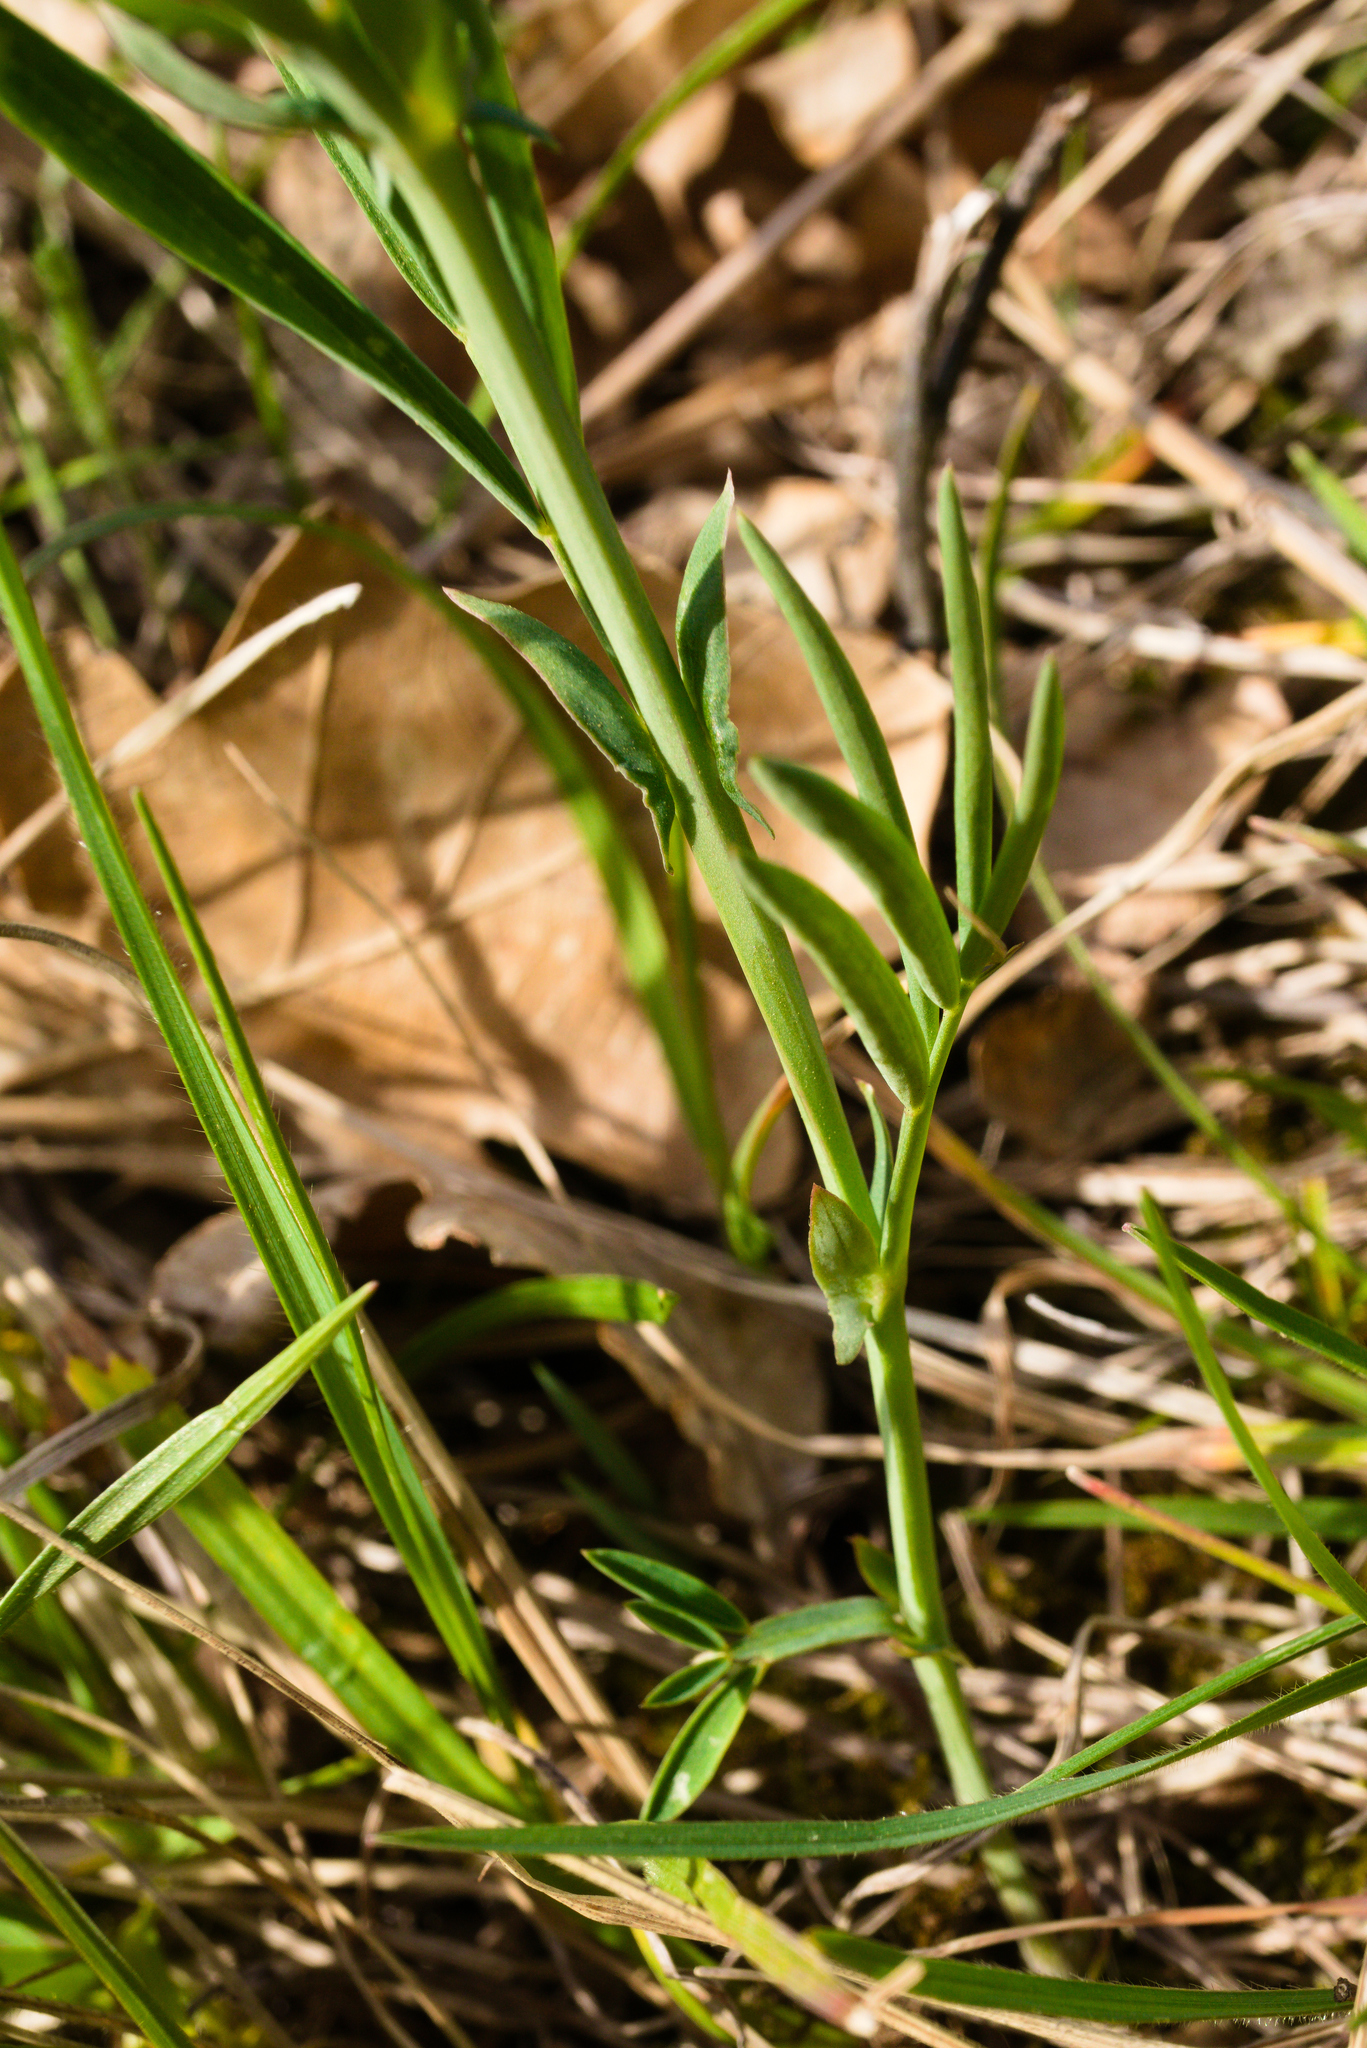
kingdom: Plantae
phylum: Tracheophyta
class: Magnoliopsida
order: Fabales
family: Fabaceae
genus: Lathyrus
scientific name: Lathyrus pannonicus
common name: Pea
